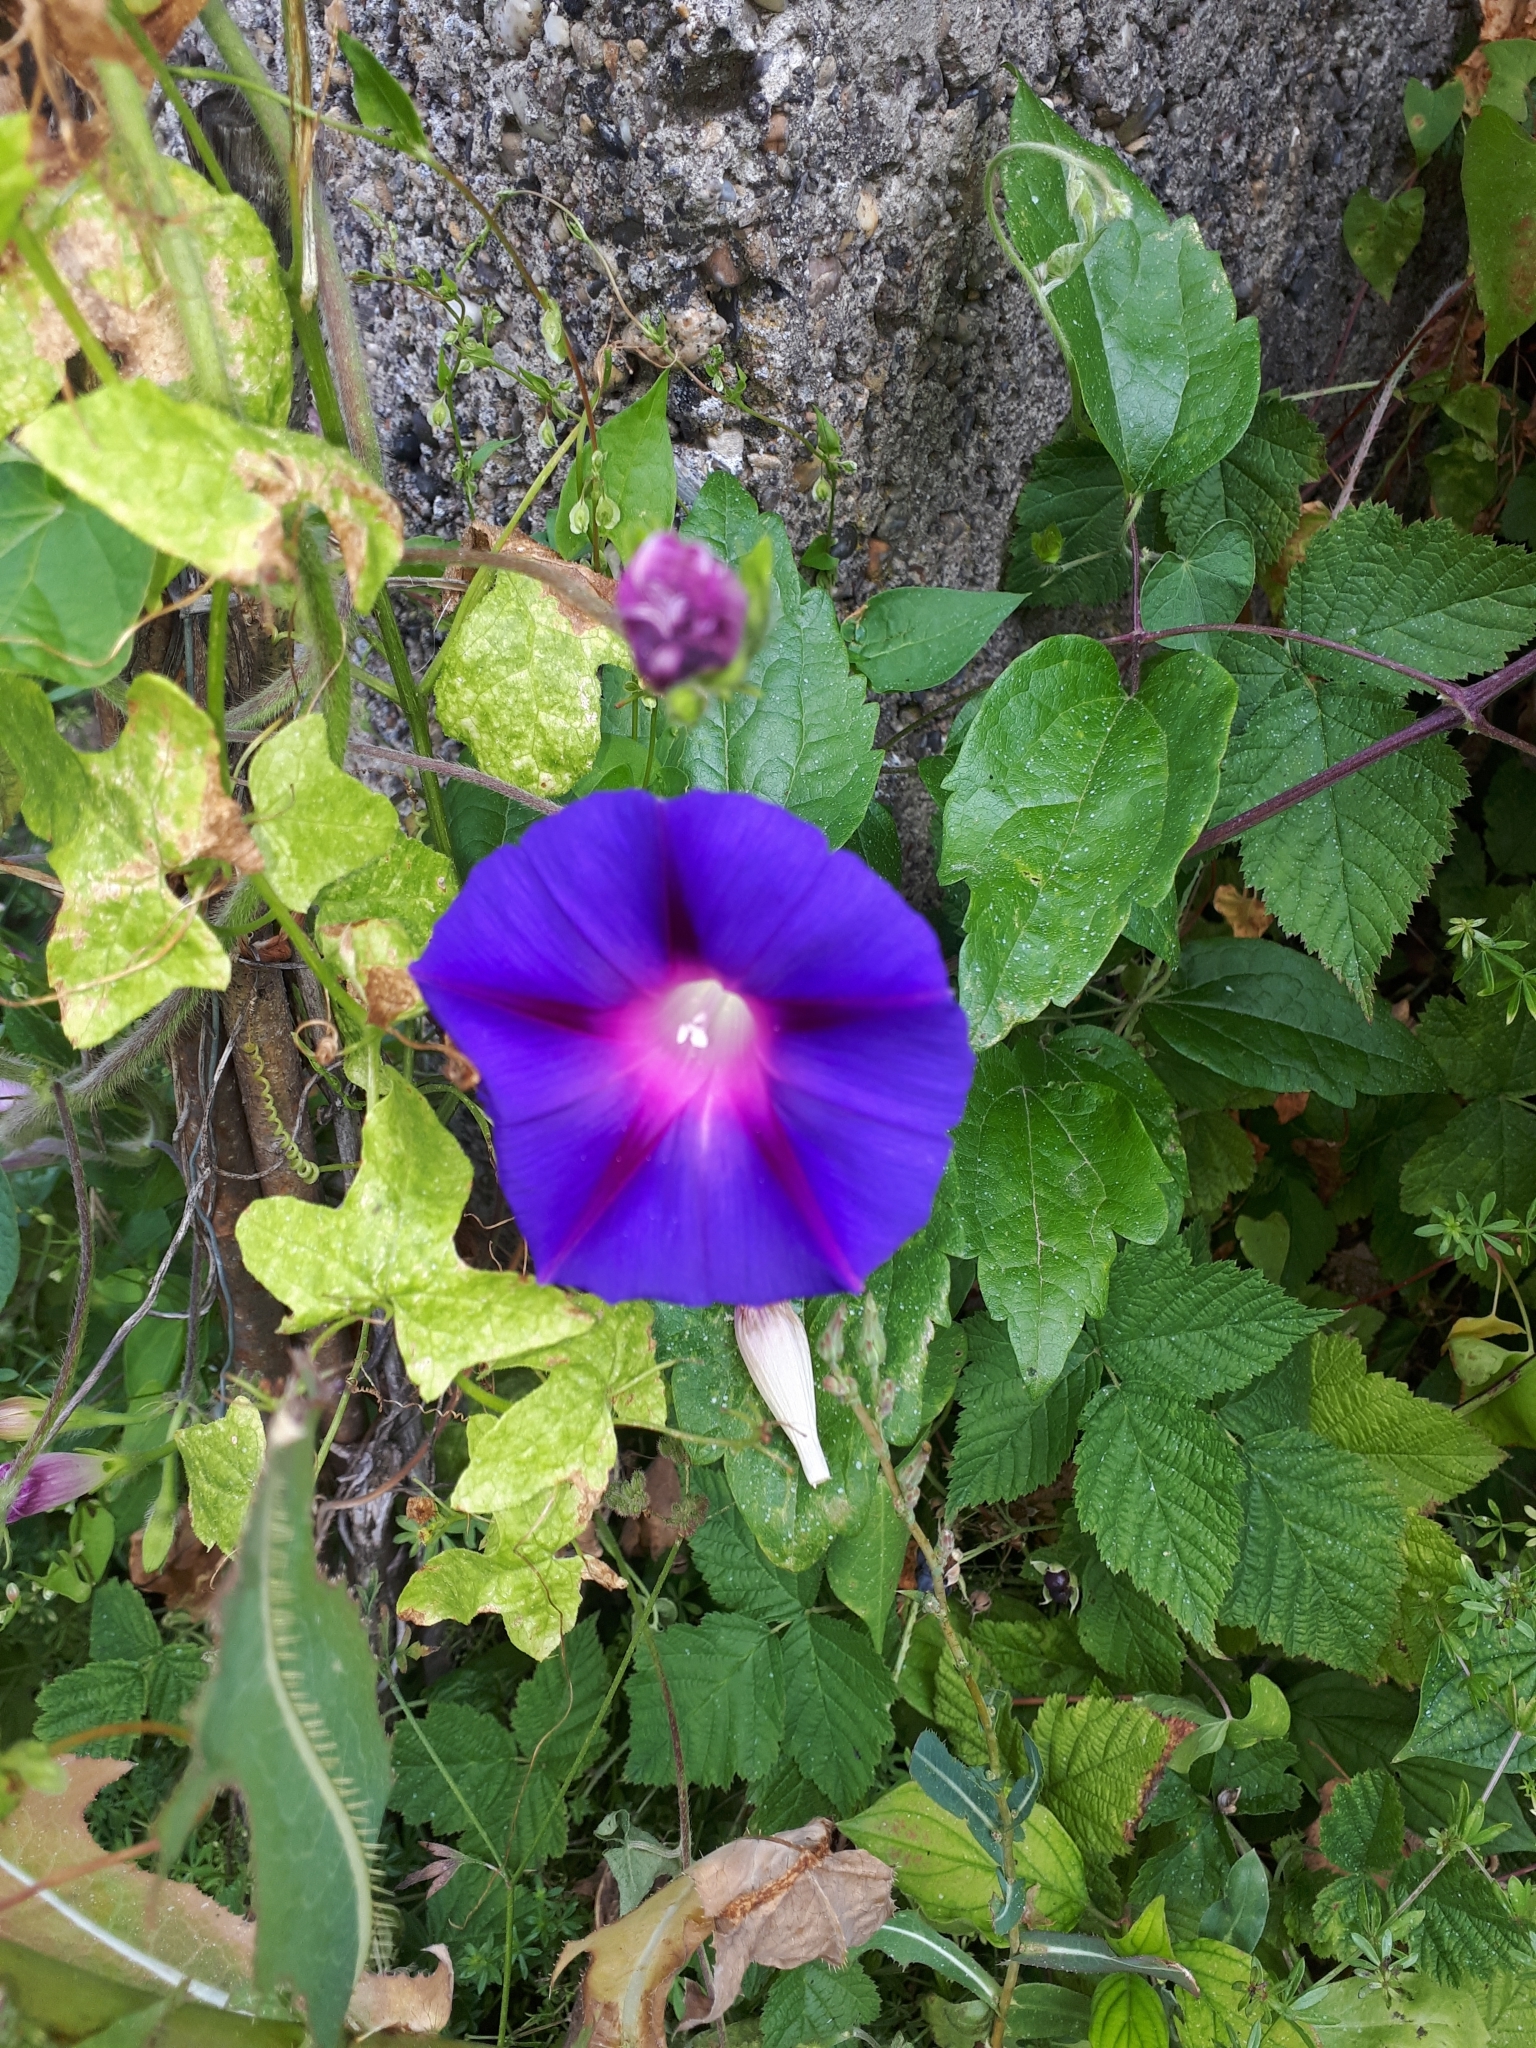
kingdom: Plantae
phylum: Tracheophyta
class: Magnoliopsida
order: Solanales
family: Convolvulaceae
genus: Ipomoea
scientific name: Ipomoea purpurea
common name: Common morning-glory
